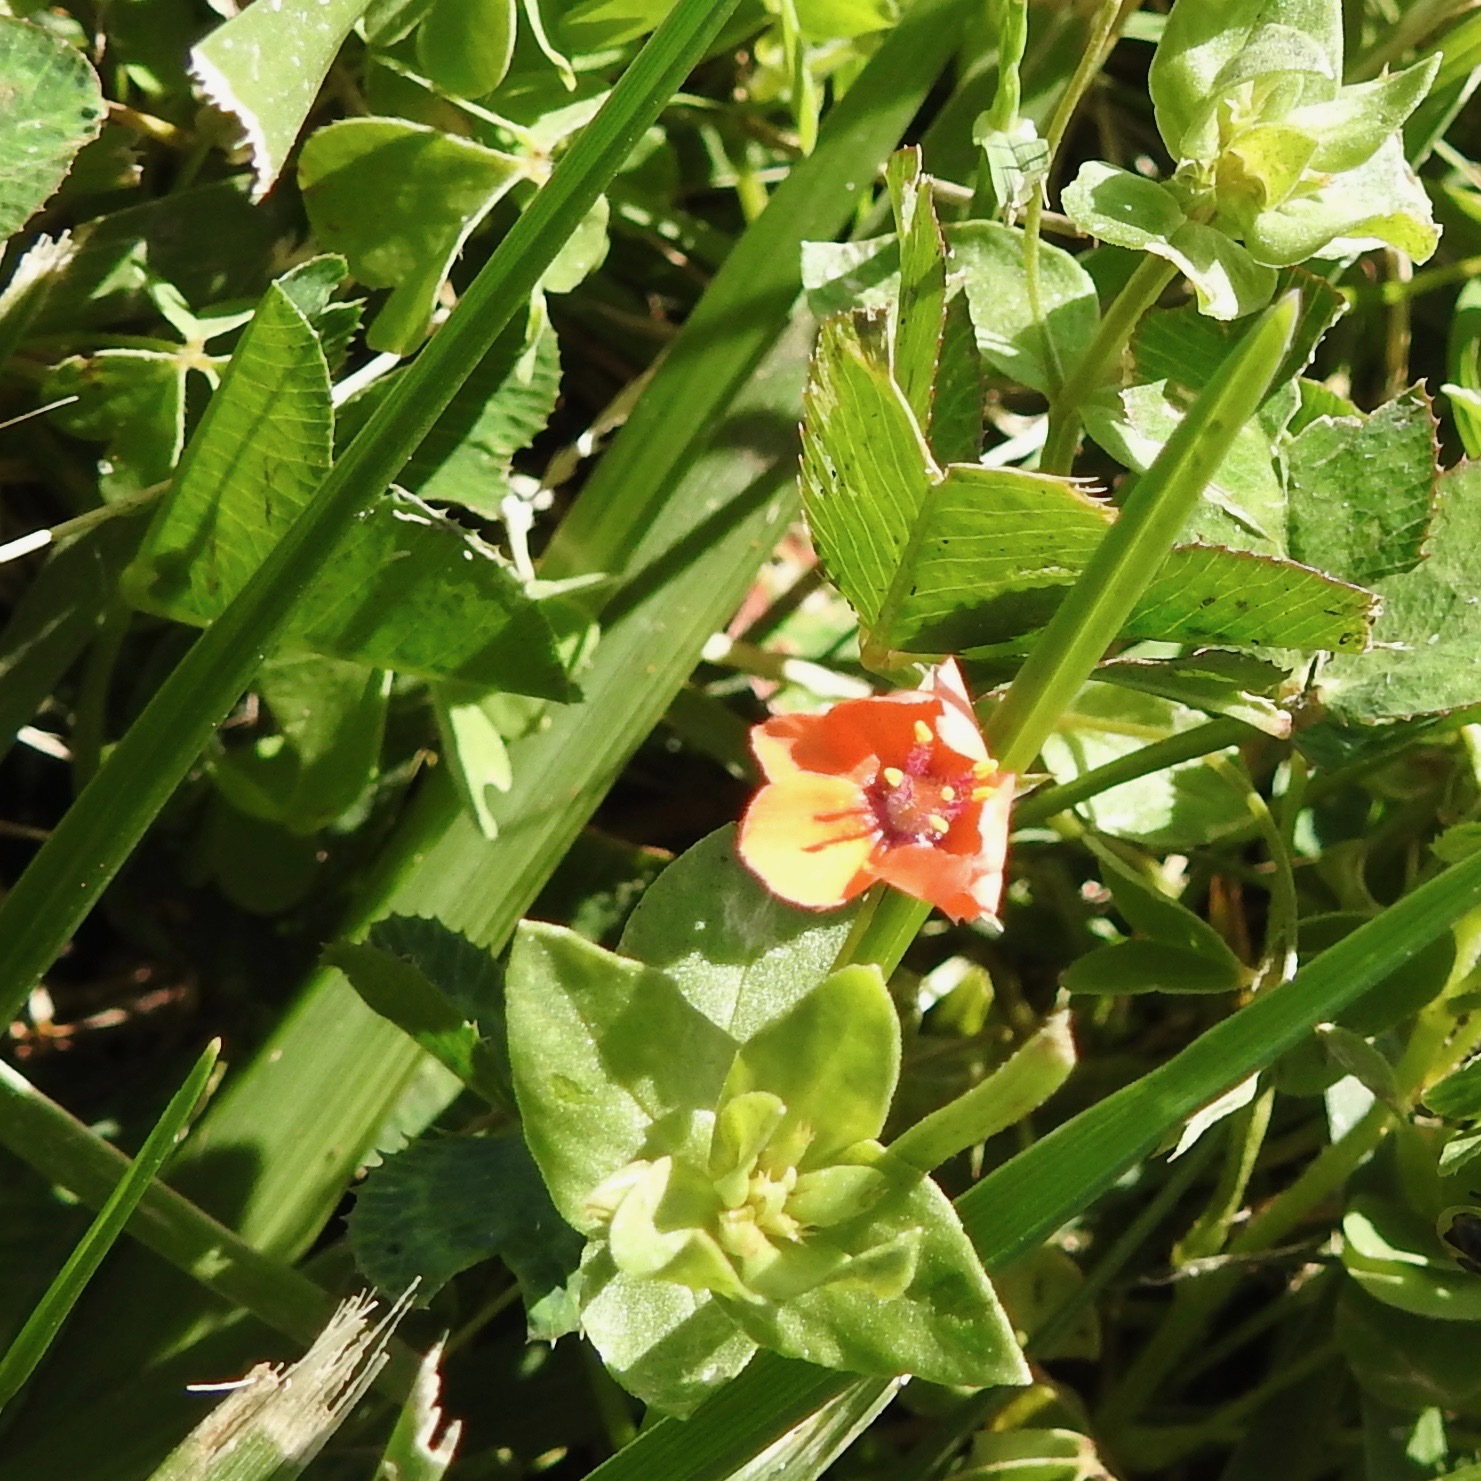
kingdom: Plantae
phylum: Tracheophyta
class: Magnoliopsida
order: Ericales
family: Primulaceae
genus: Lysimachia
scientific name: Lysimachia arvensis
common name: Scarlet pimpernel
